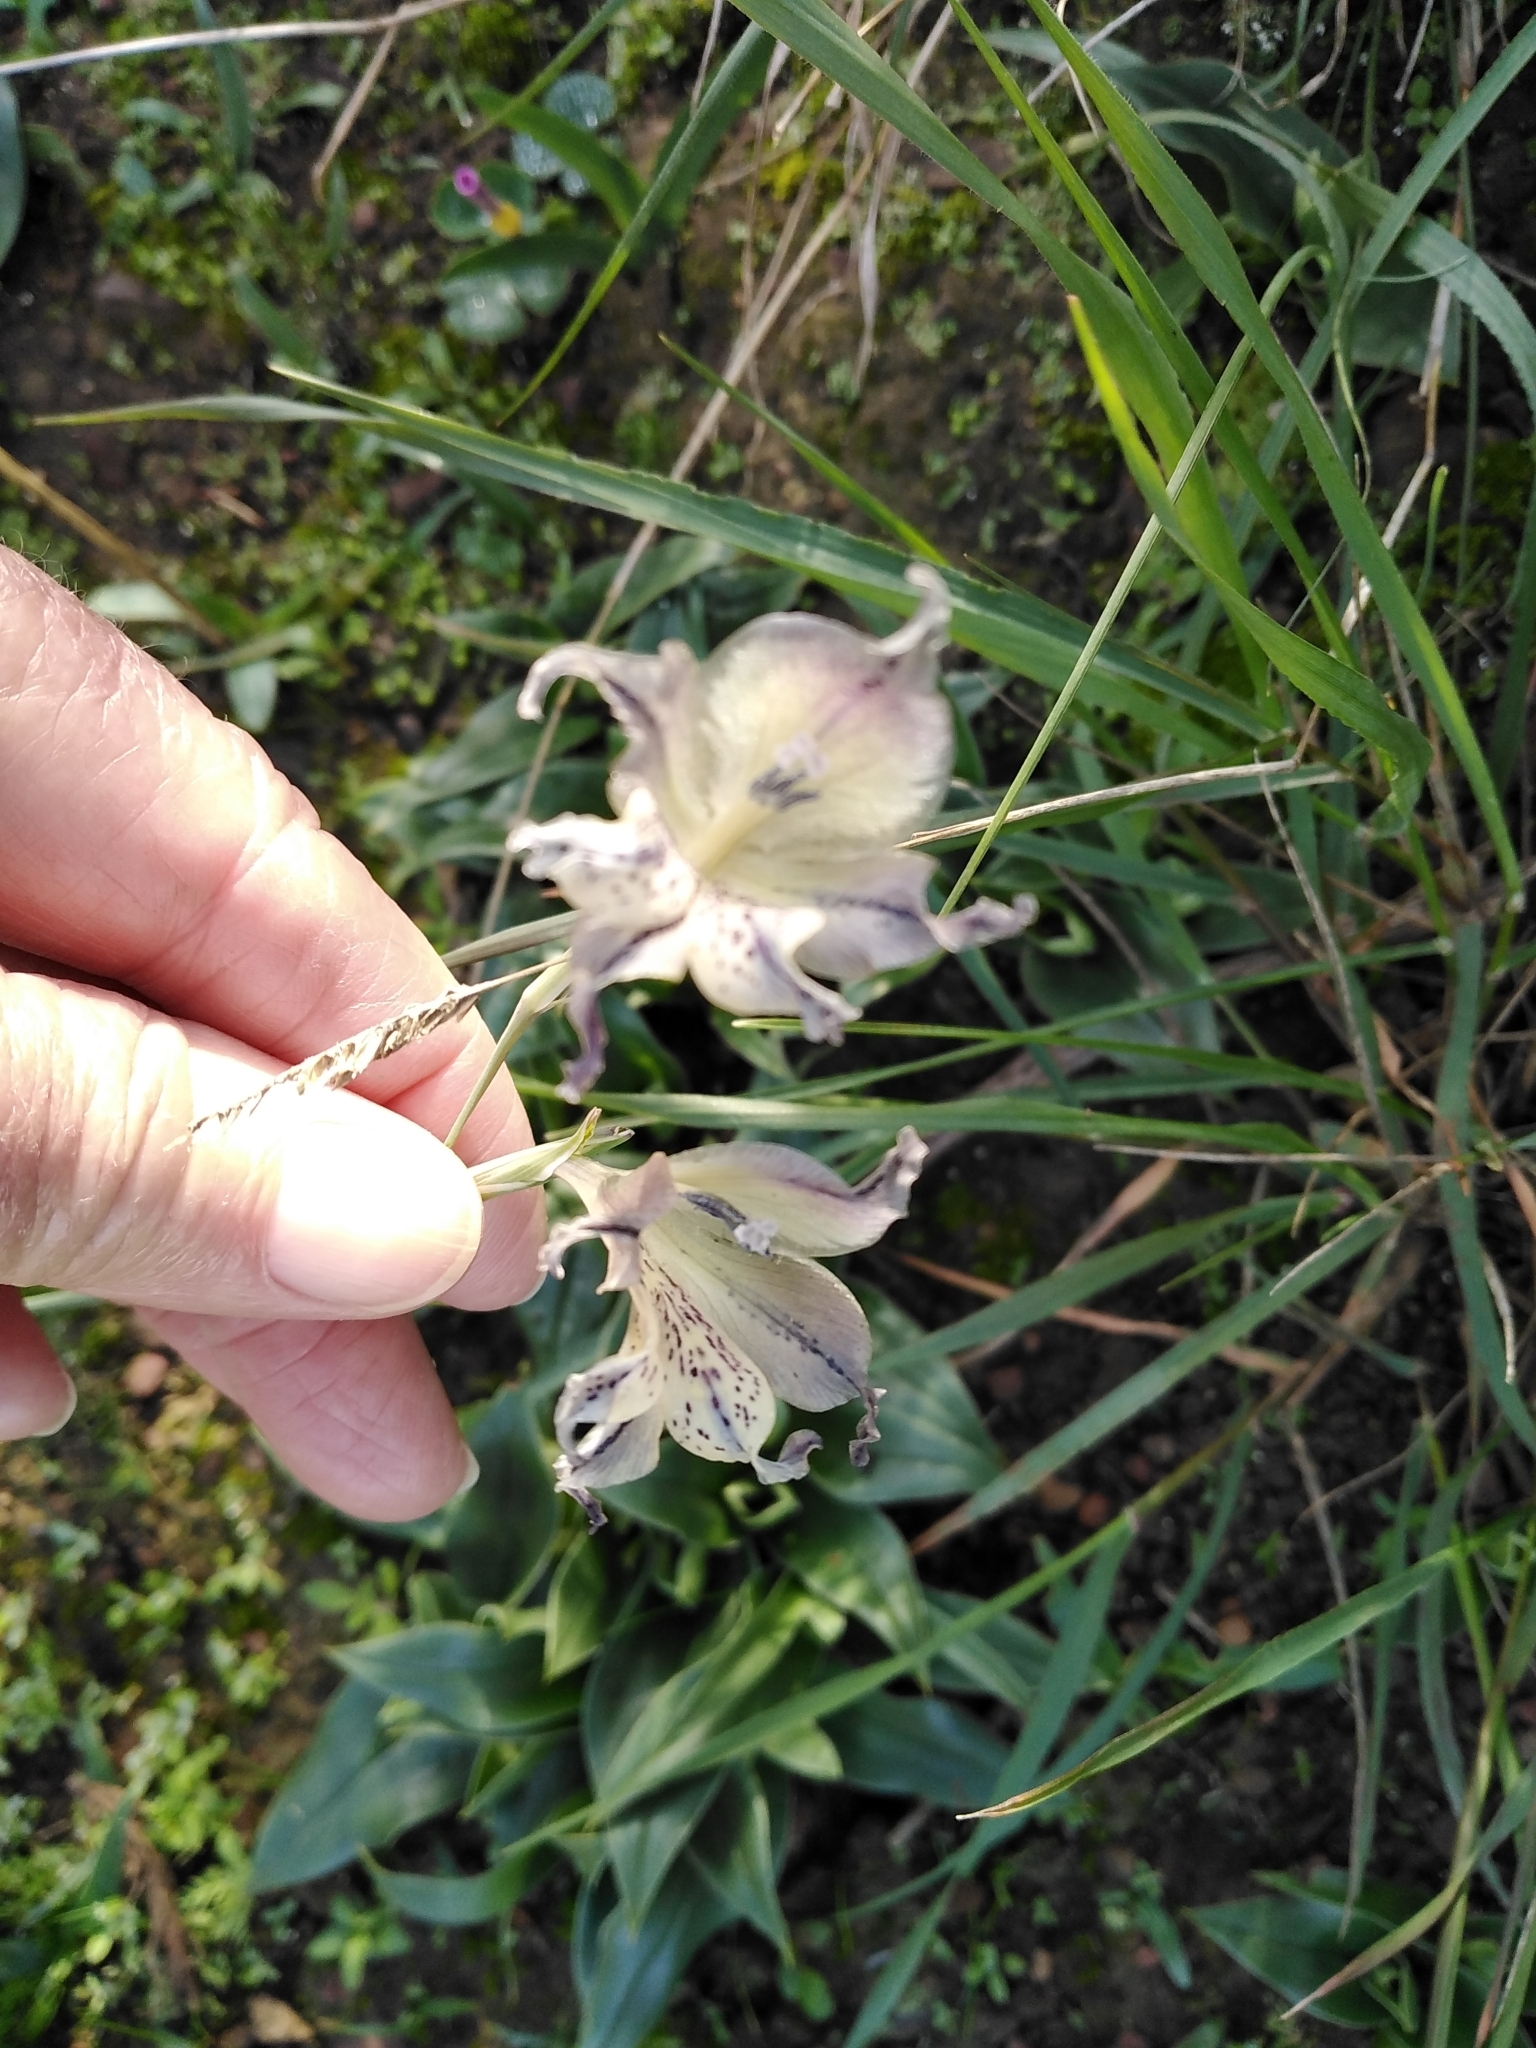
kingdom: Plantae
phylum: Tracheophyta
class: Liliopsida
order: Asparagales
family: Iridaceae
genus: Gladiolus
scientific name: Gladiolus recurvus
